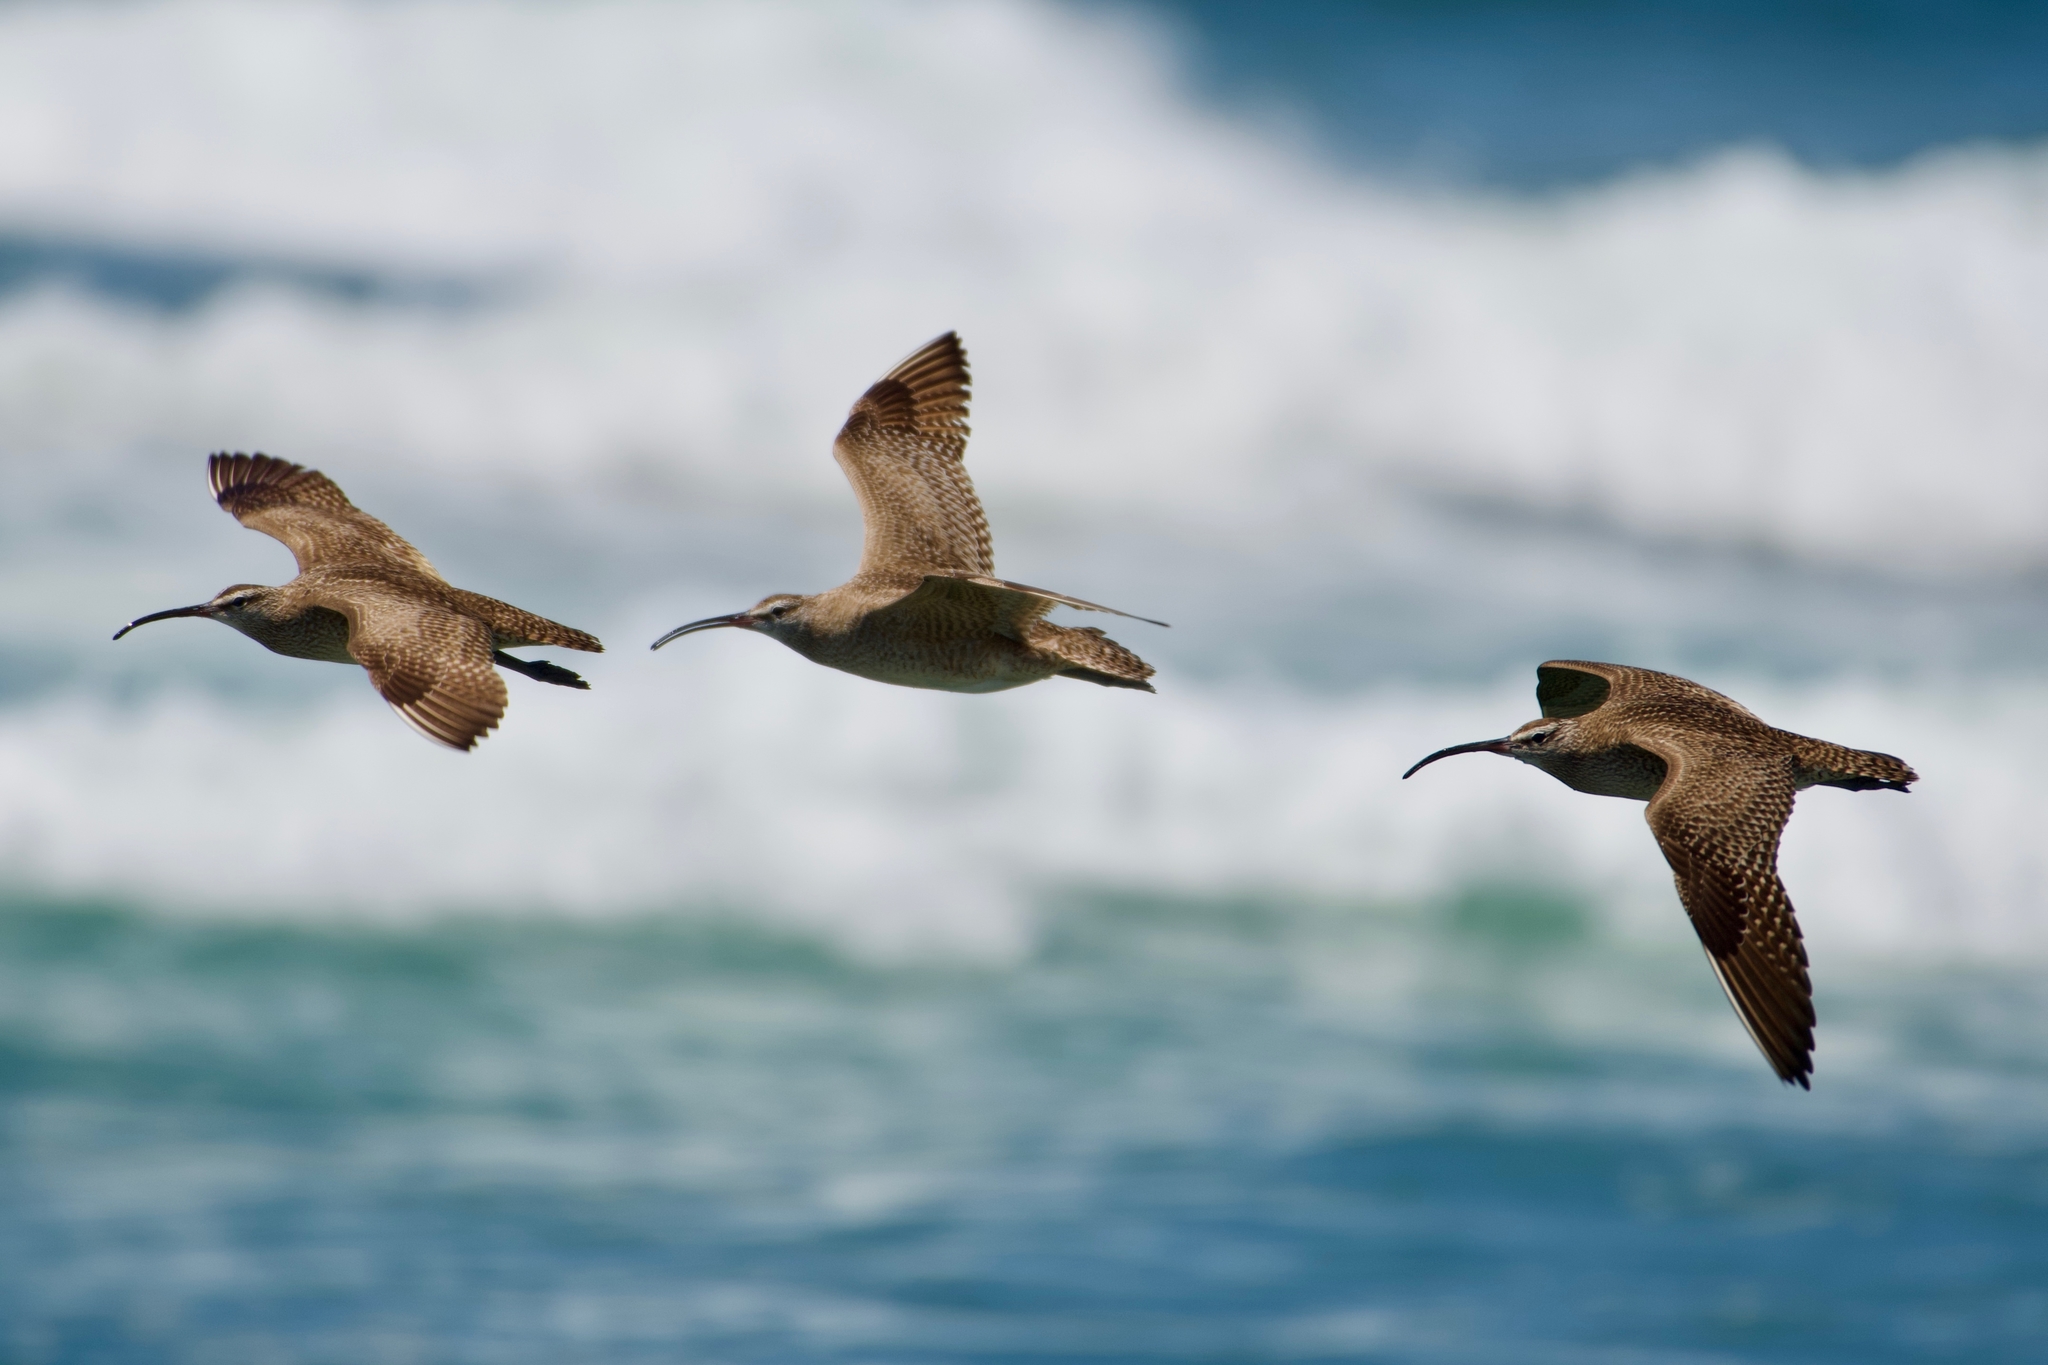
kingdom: Animalia
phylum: Chordata
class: Aves
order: Charadriiformes
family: Scolopacidae
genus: Numenius
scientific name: Numenius phaeopus
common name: Whimbrel
